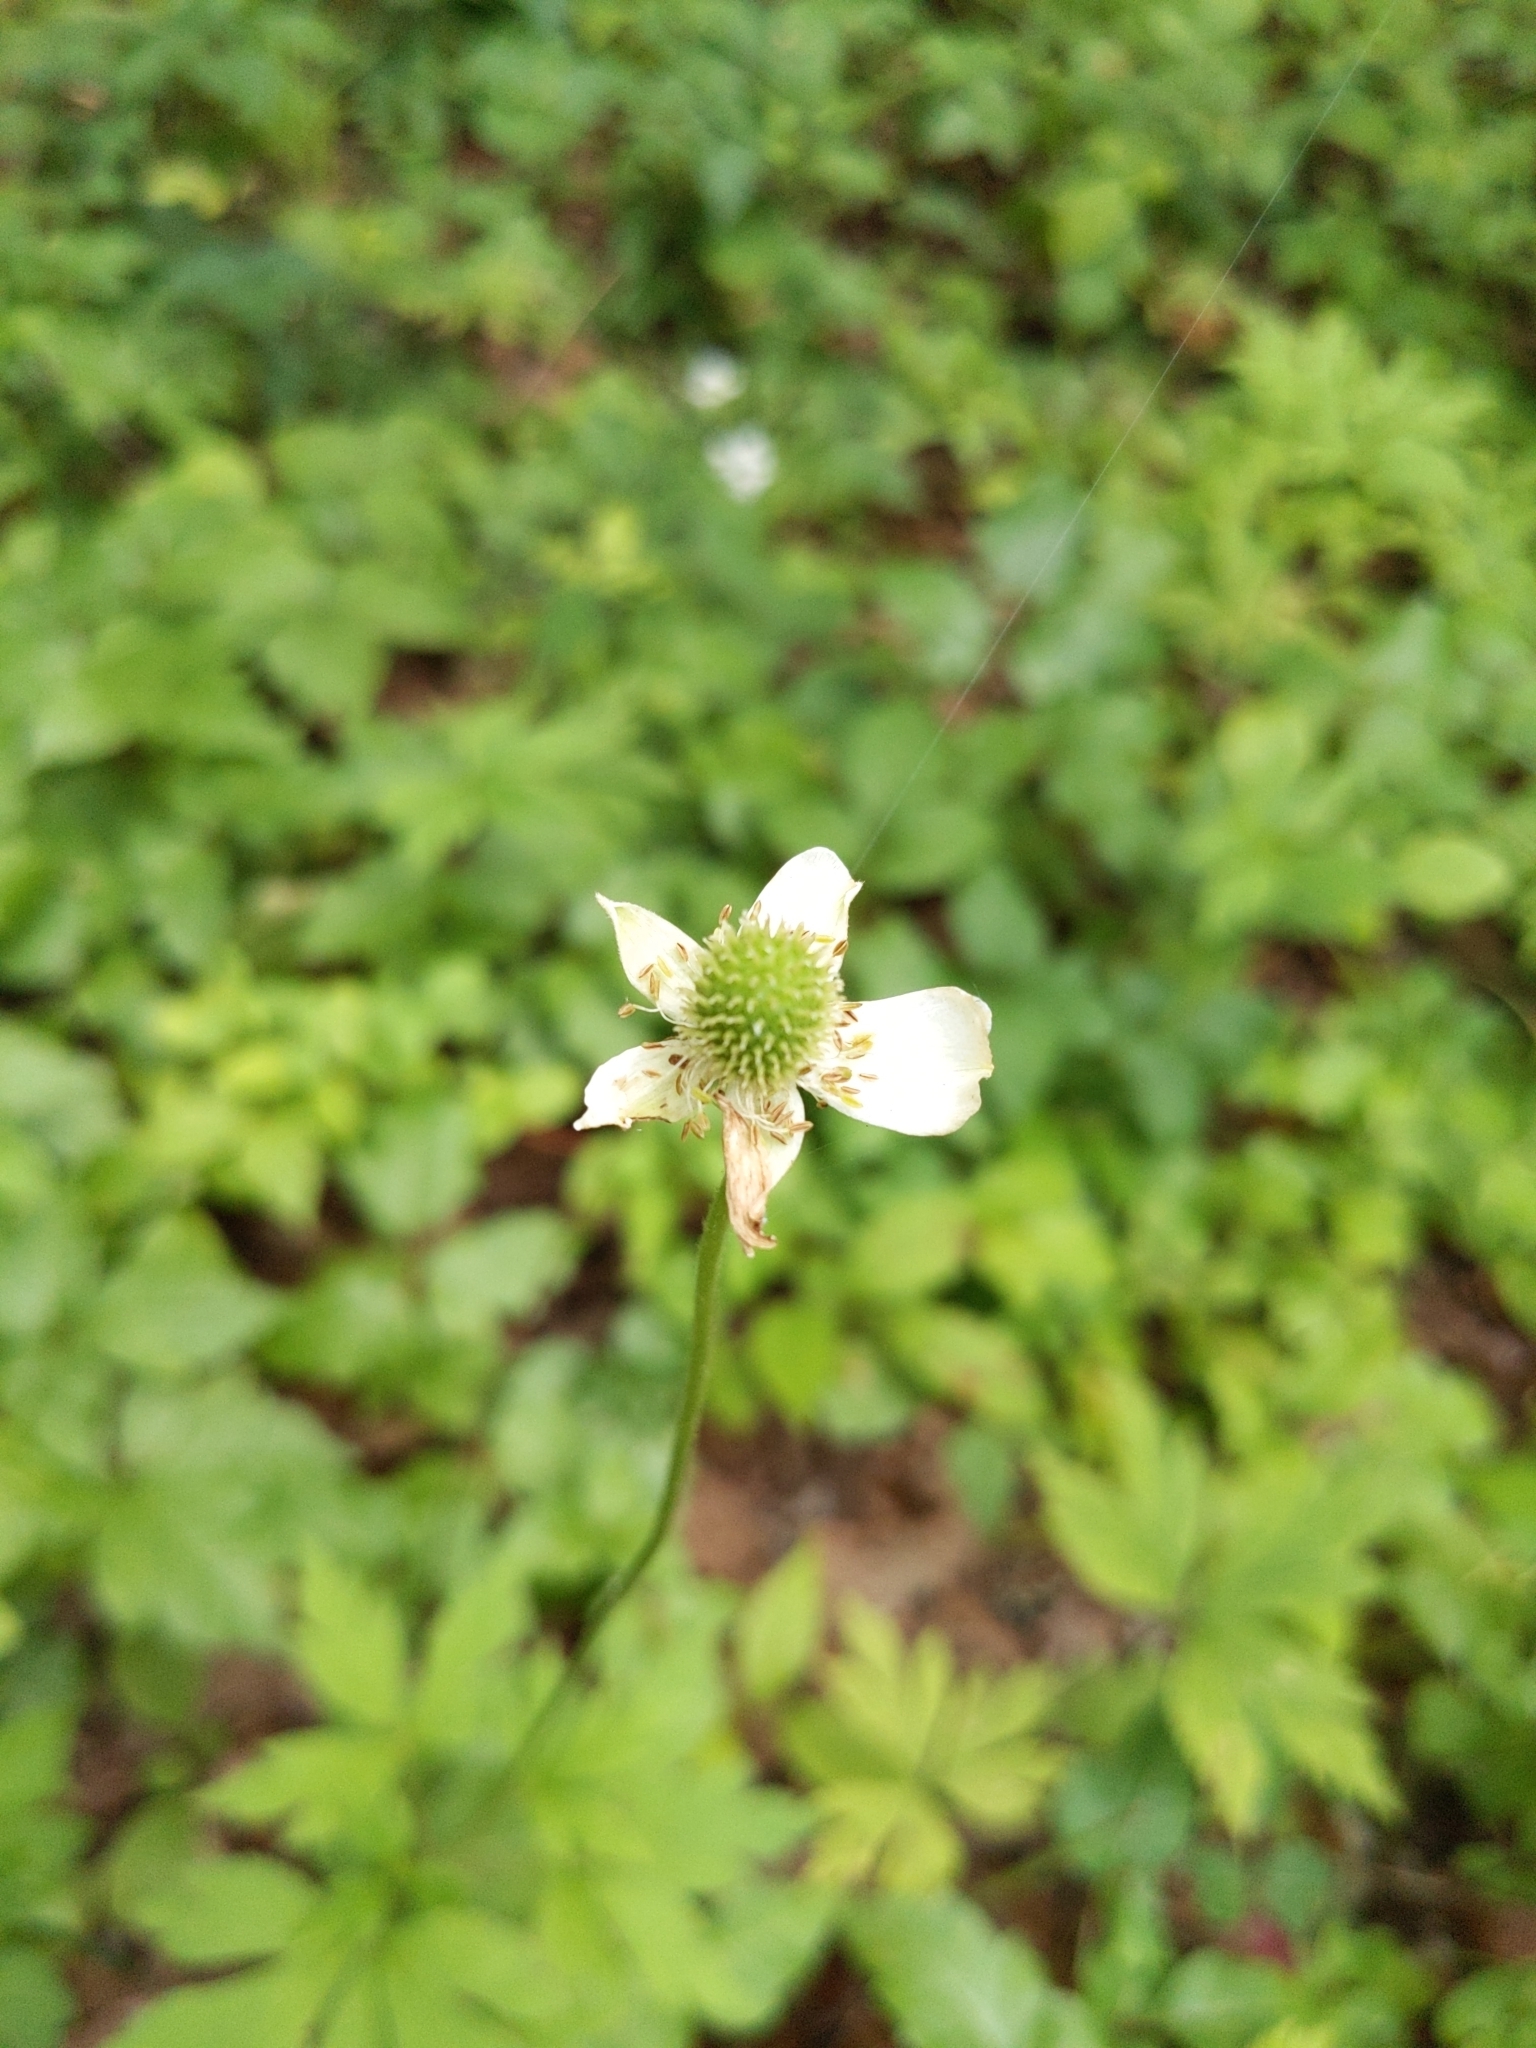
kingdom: Plantae
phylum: Tracheophyta
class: Magnoliopsida
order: Ranunculales
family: Ranunculaceae
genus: Anemone
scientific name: Anemone virginiana
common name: Tall anemone
